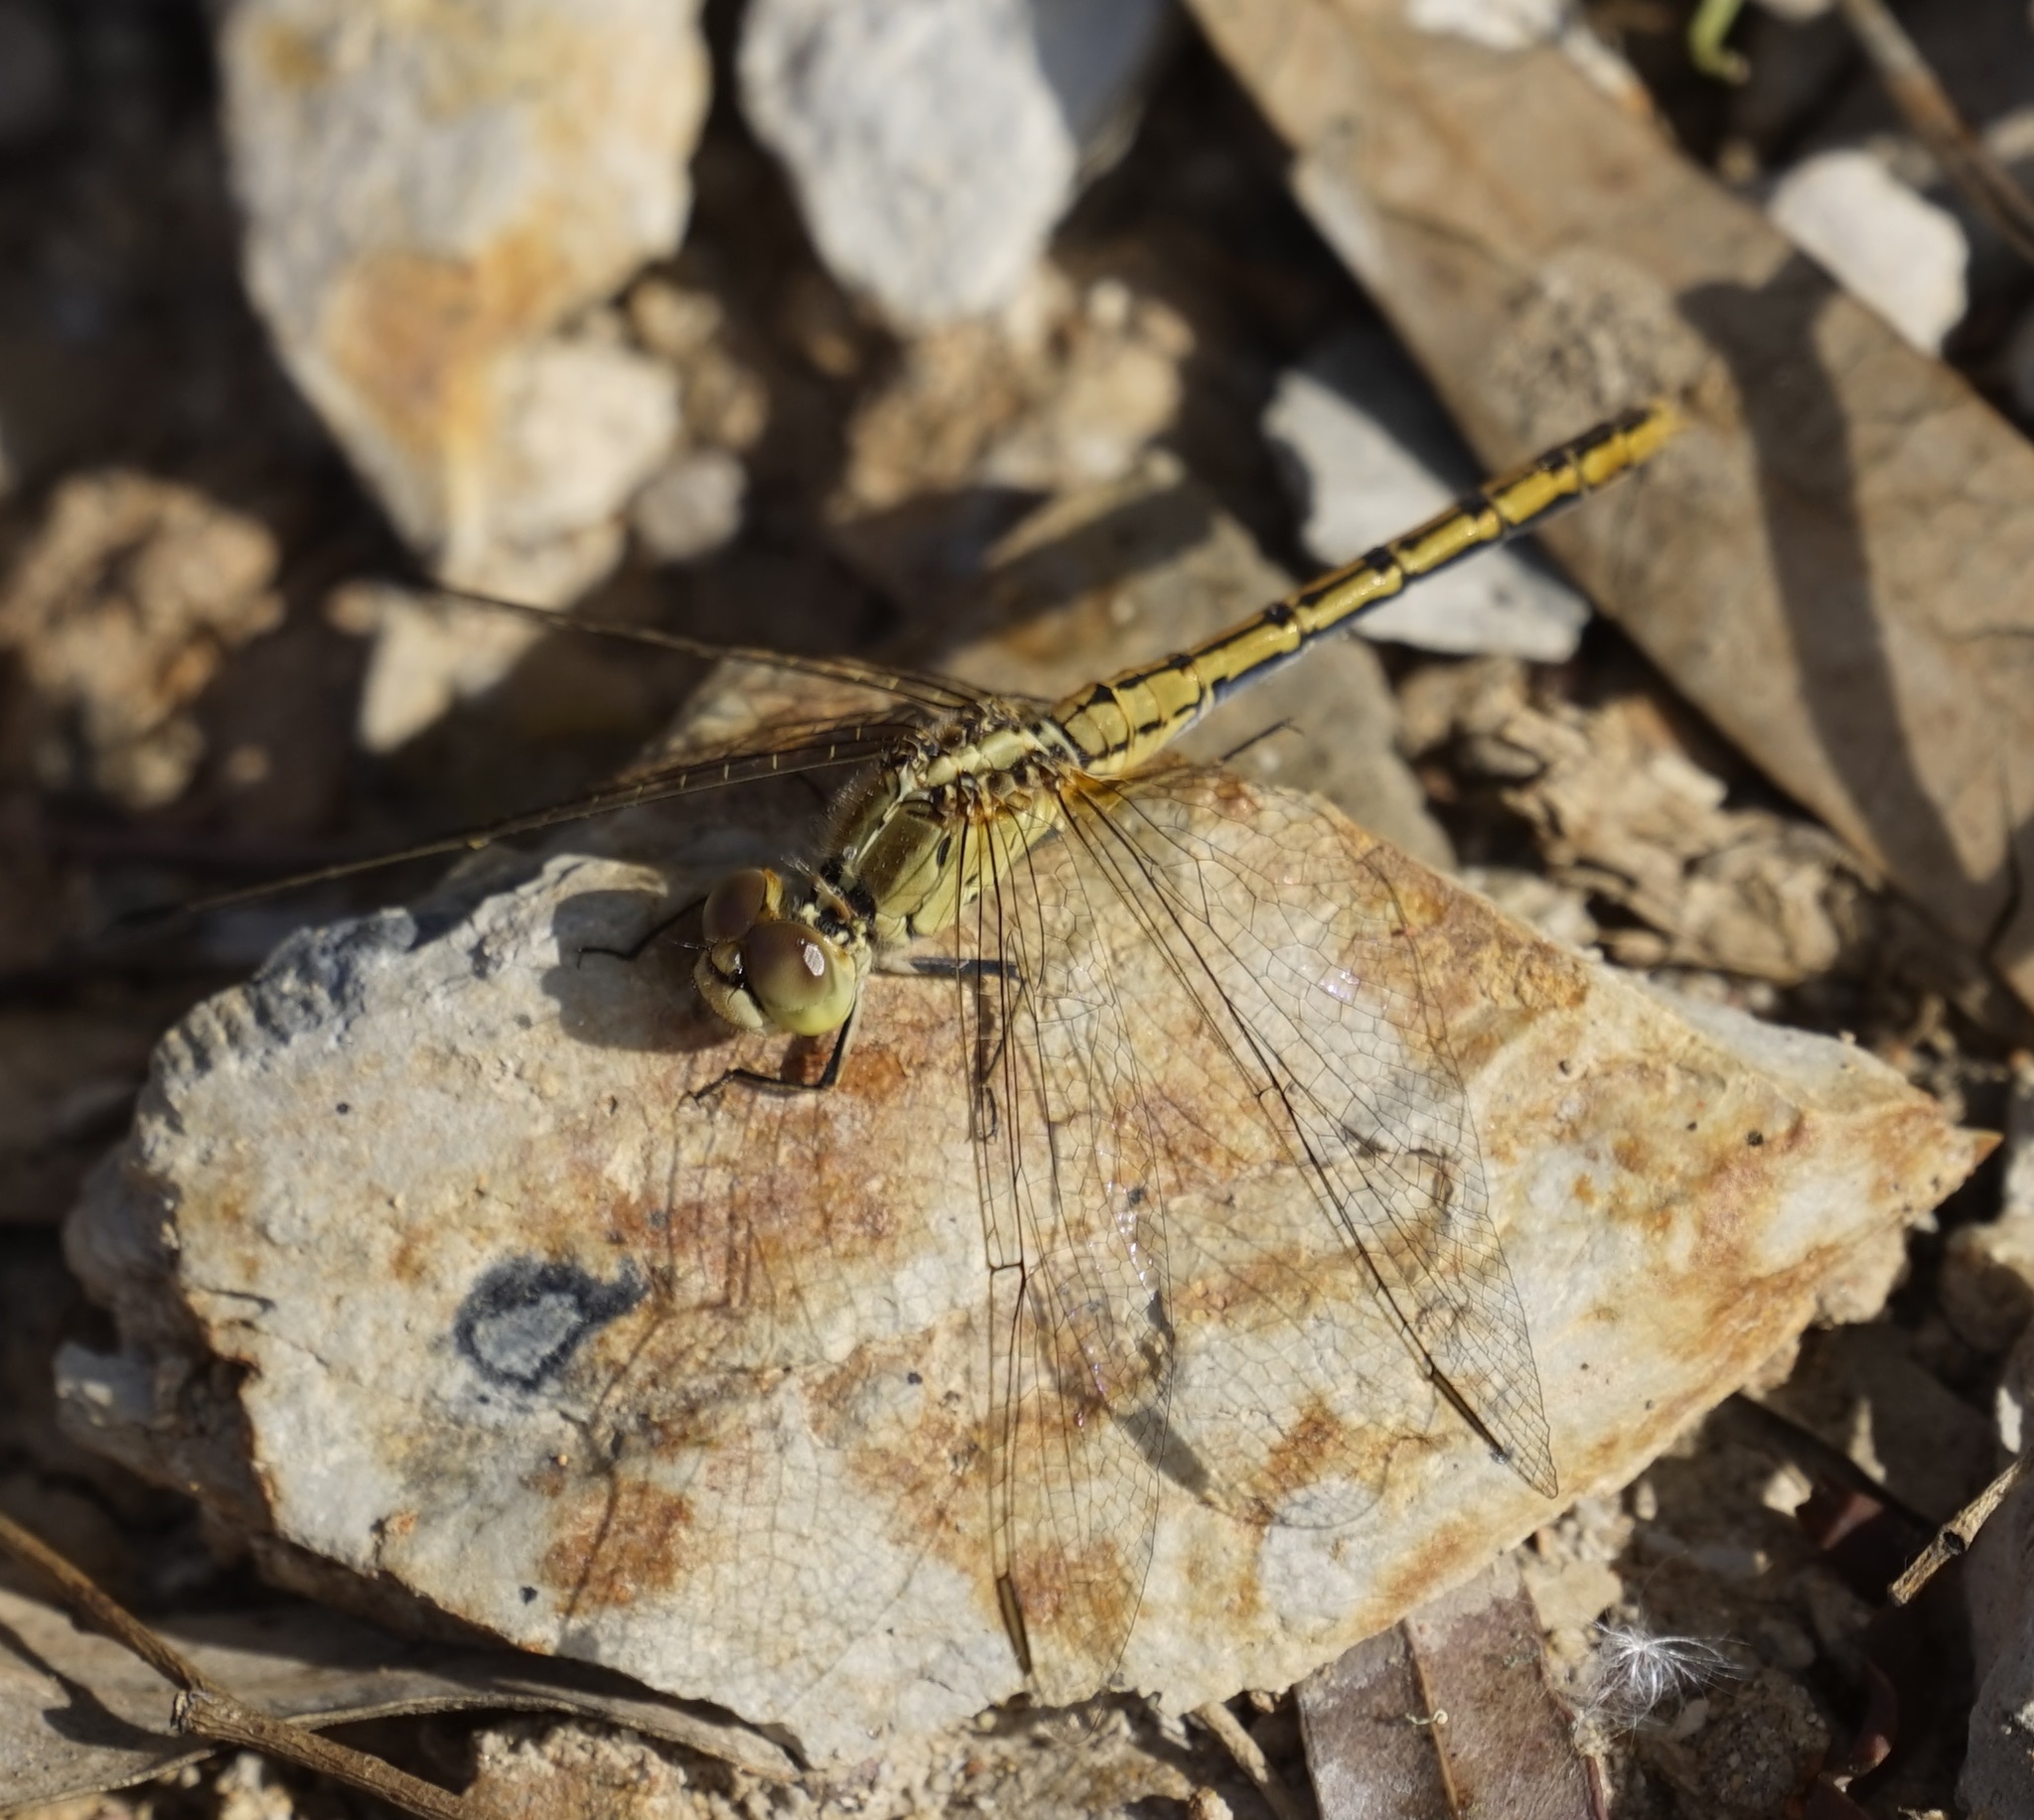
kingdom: Animalia
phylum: Arthropoda
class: Insecta
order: Odonata
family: Libellulidae
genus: Diplacodes
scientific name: Diplacodes bipunctata
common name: Red percher dragonfly
